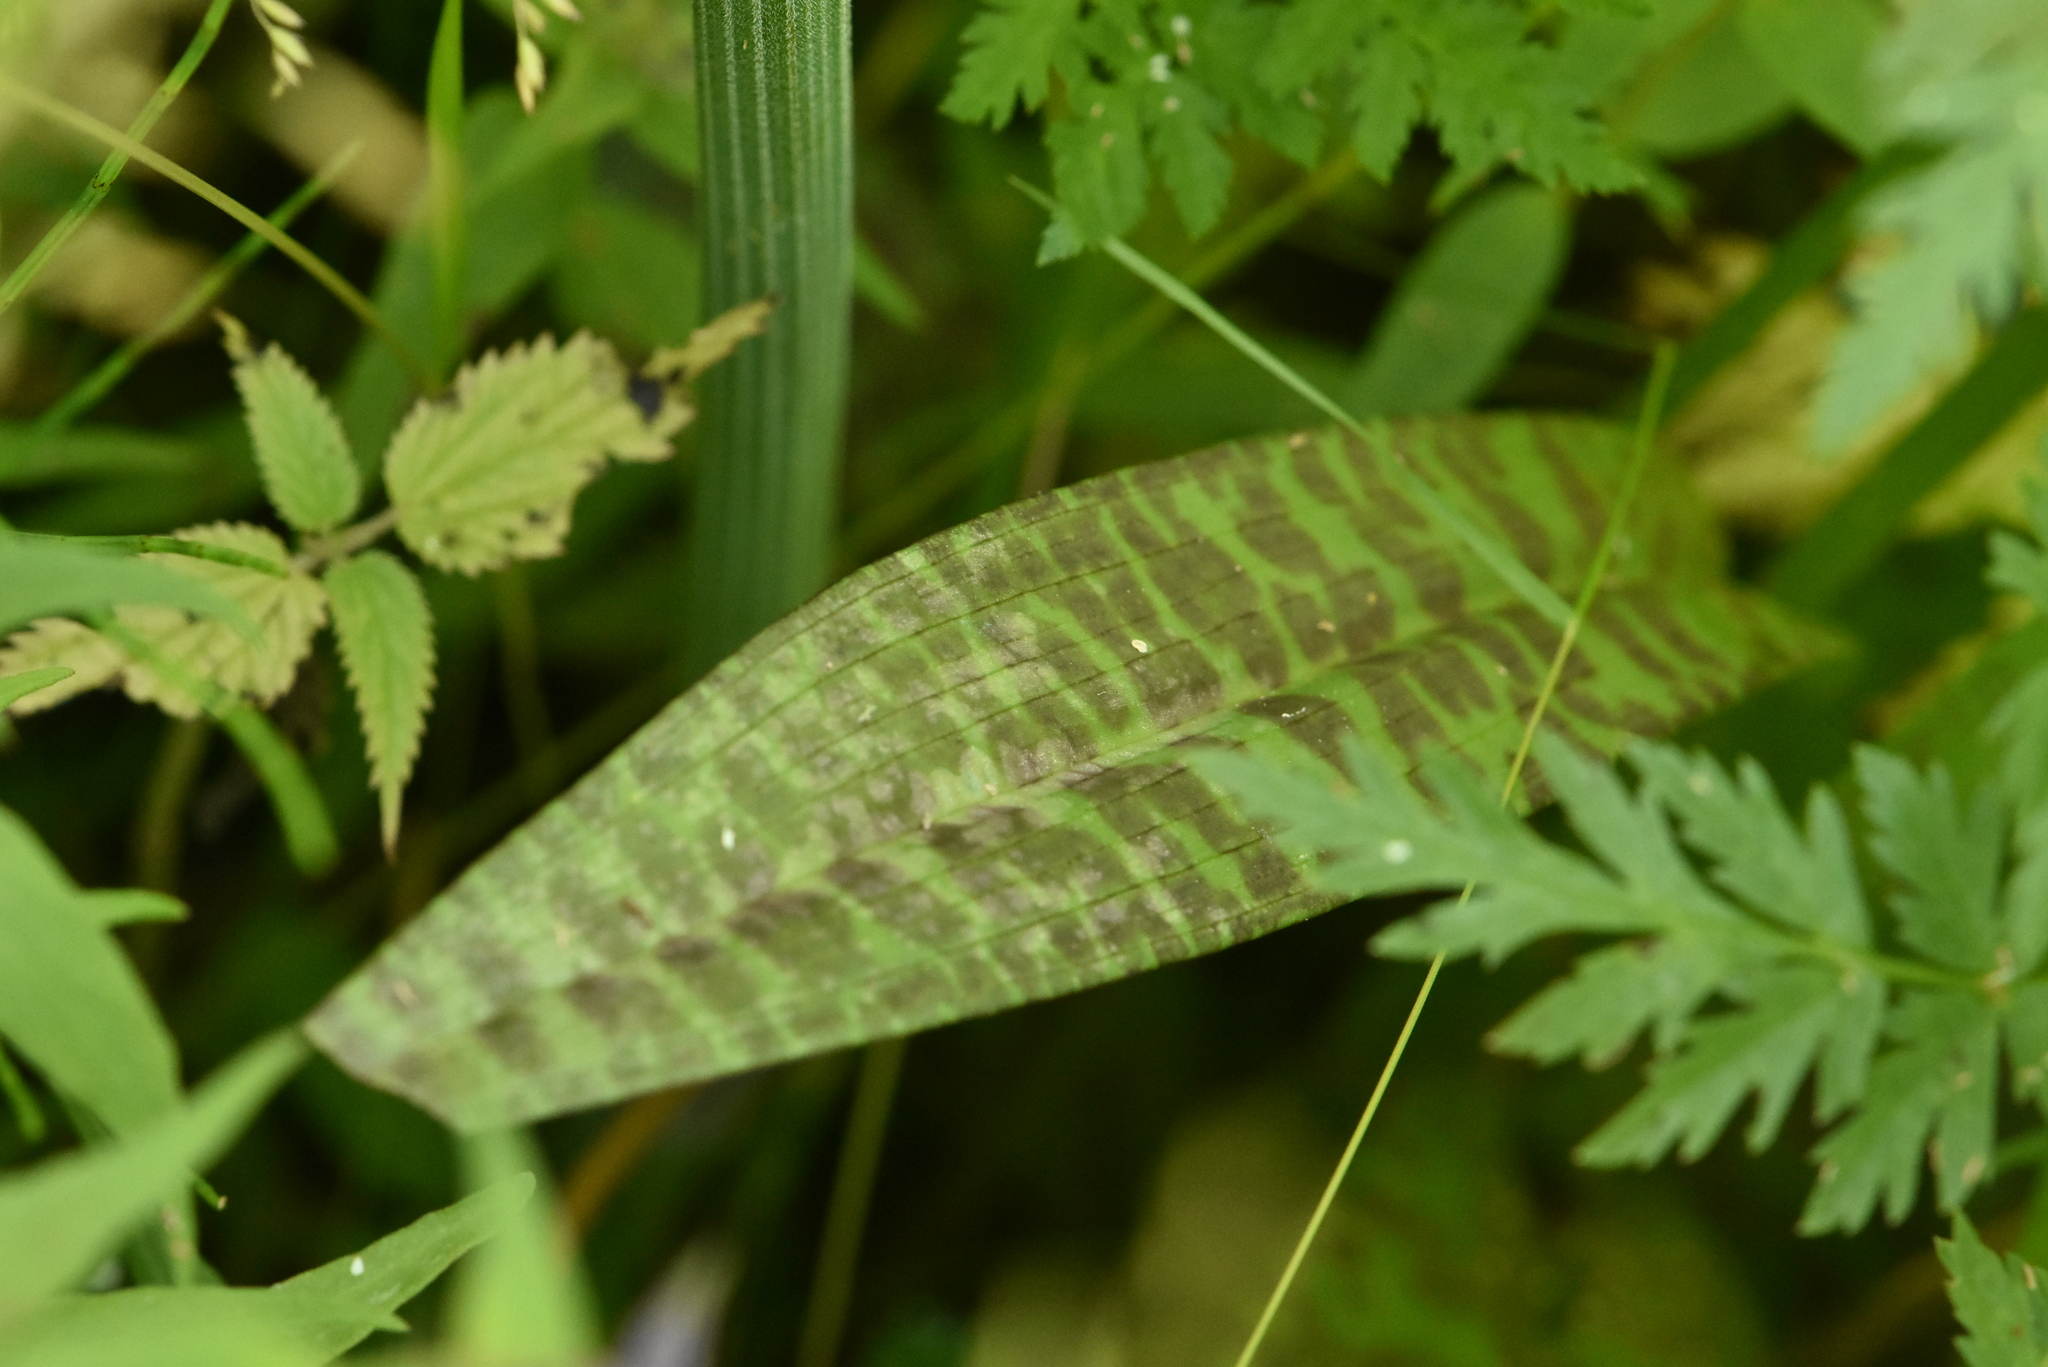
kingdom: Plantae
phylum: Tracheophyta
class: Liliopsida
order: Asparagales
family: Orchidaceae
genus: Dactylorhiza
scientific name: Dactylorhiza majalis
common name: Marsh orchid
